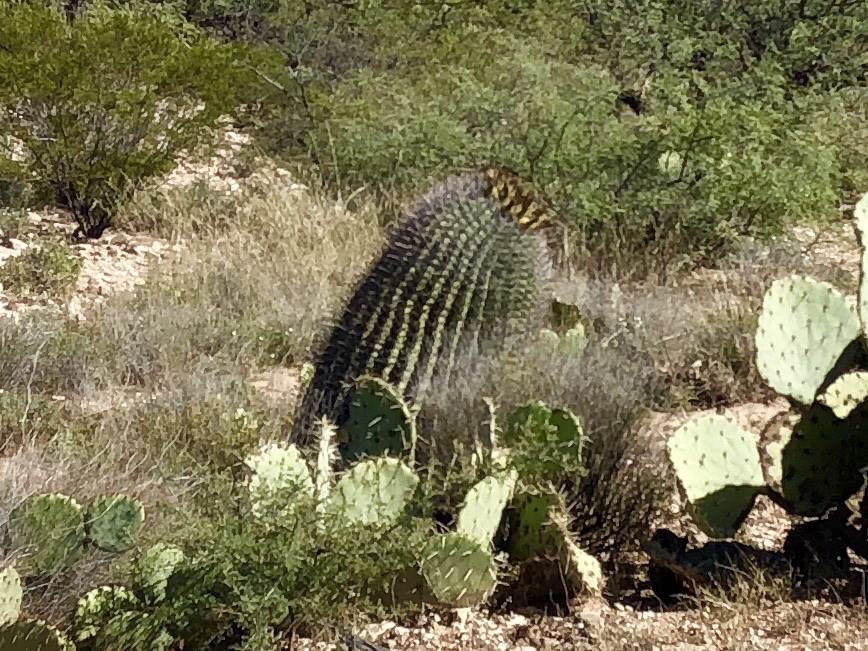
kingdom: Plantae
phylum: Tracheophyta
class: Magnoliopsida
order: Caryophyllales
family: Cactaceae
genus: Ferocactus
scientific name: Ferocactus wislizeni
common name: Candy barrel cactus
